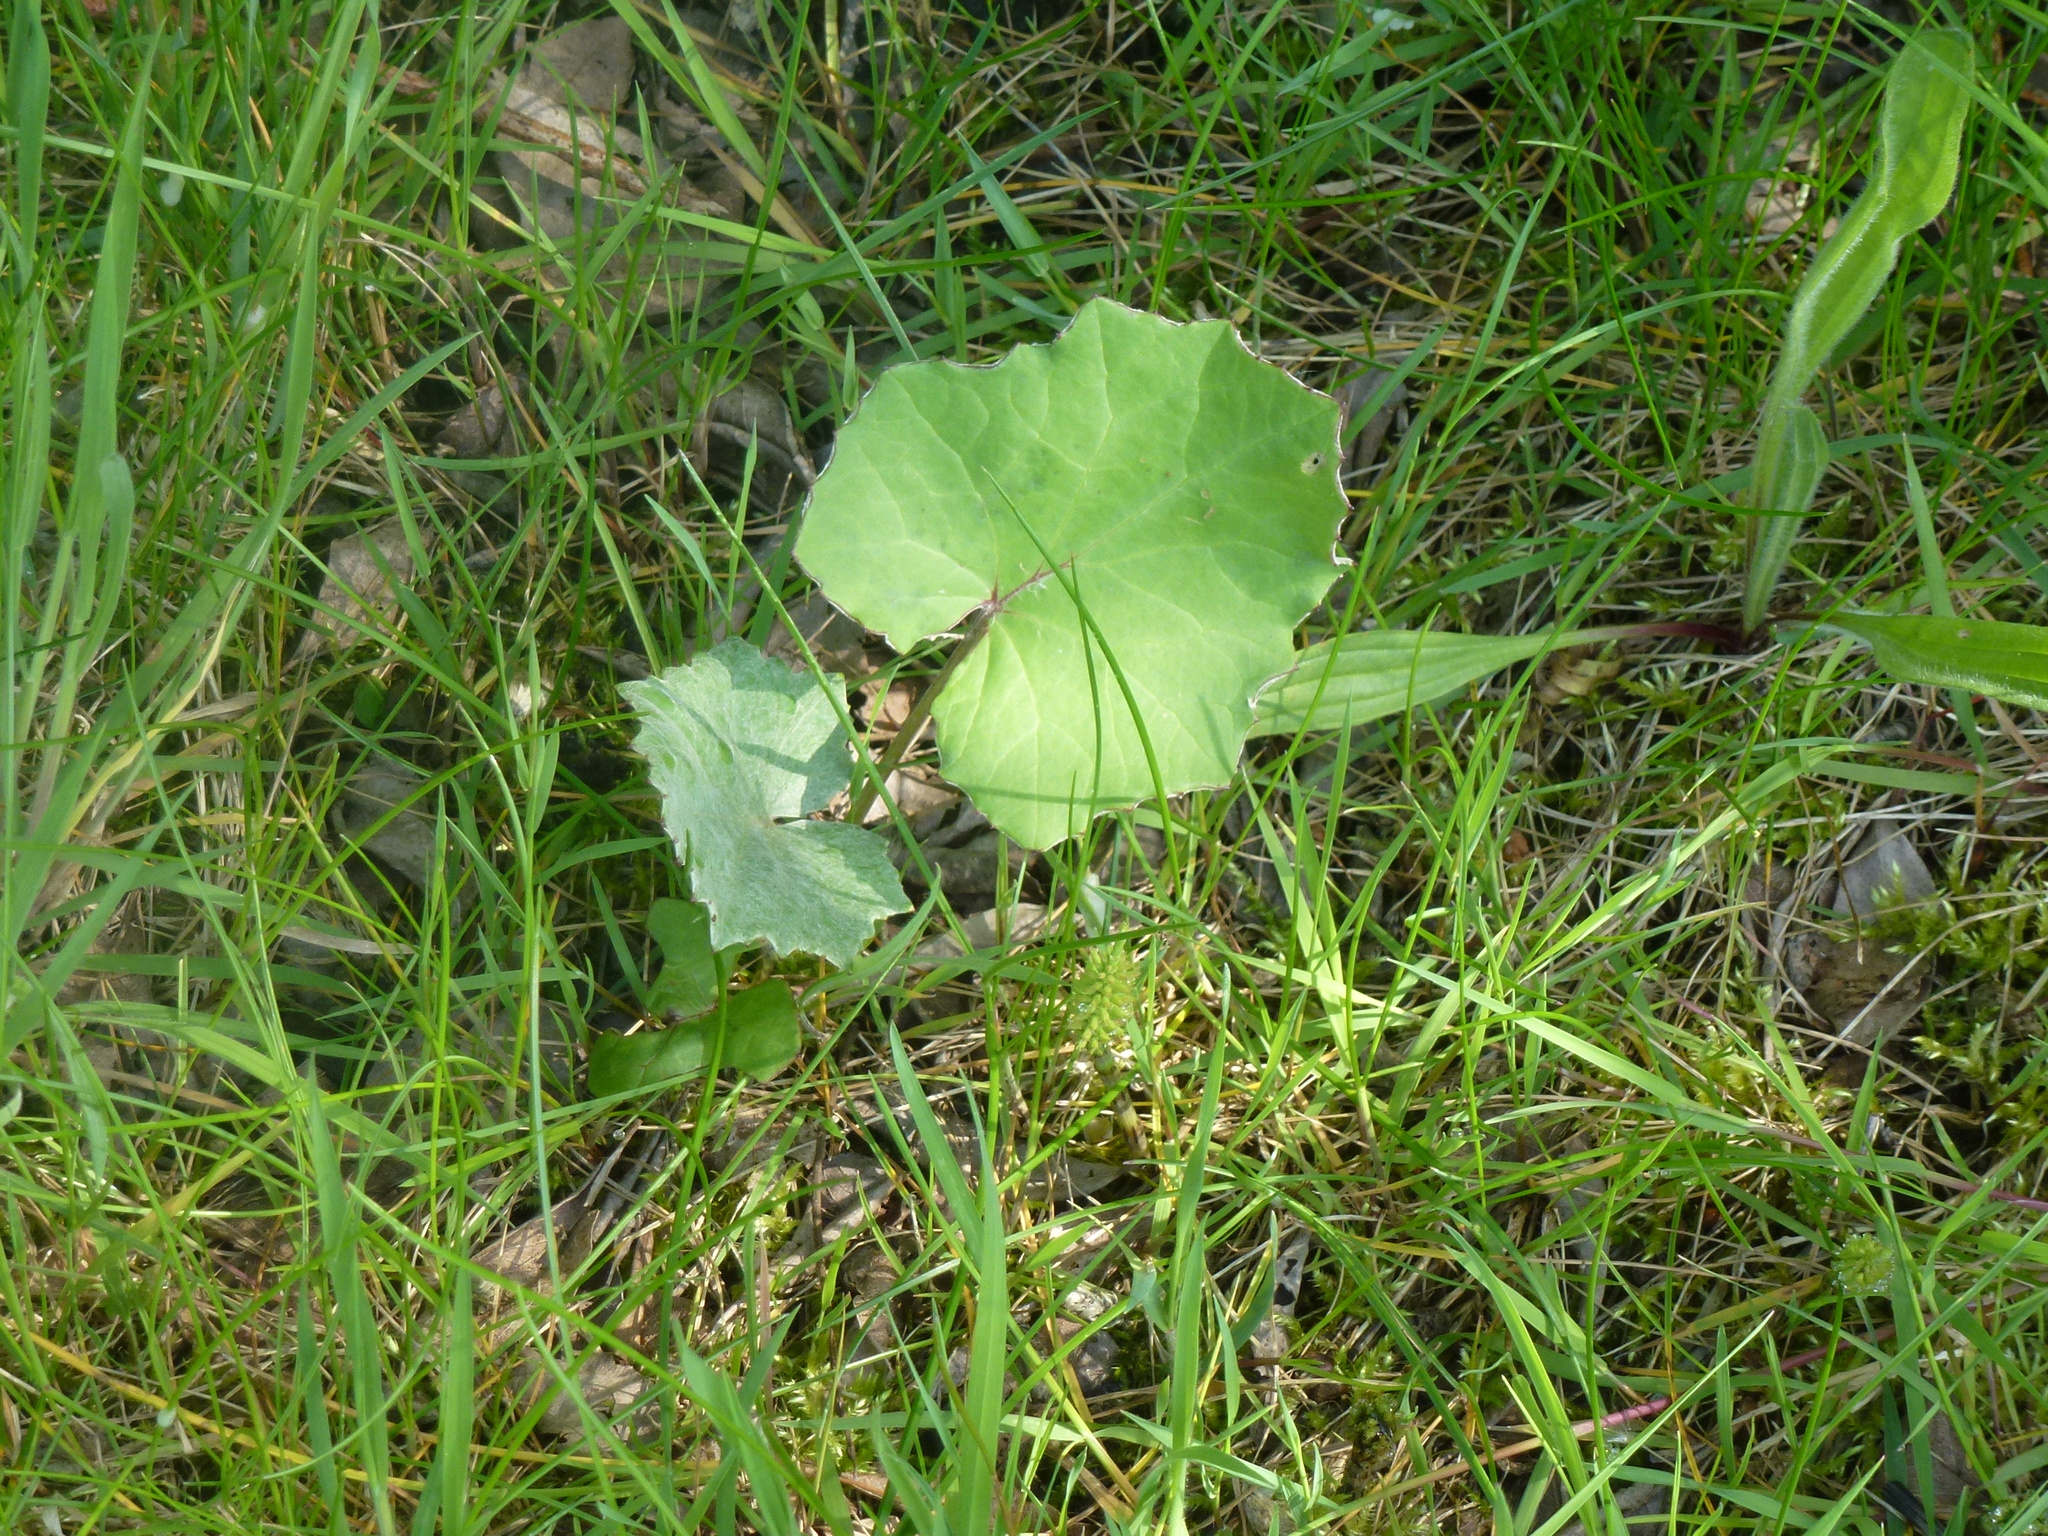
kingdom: Plantae
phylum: Tracheophyta
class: Magnoliopsida
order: Asterales
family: Asteraceae
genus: Tussilago
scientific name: Tussilago farfara
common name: Coltsfoot
